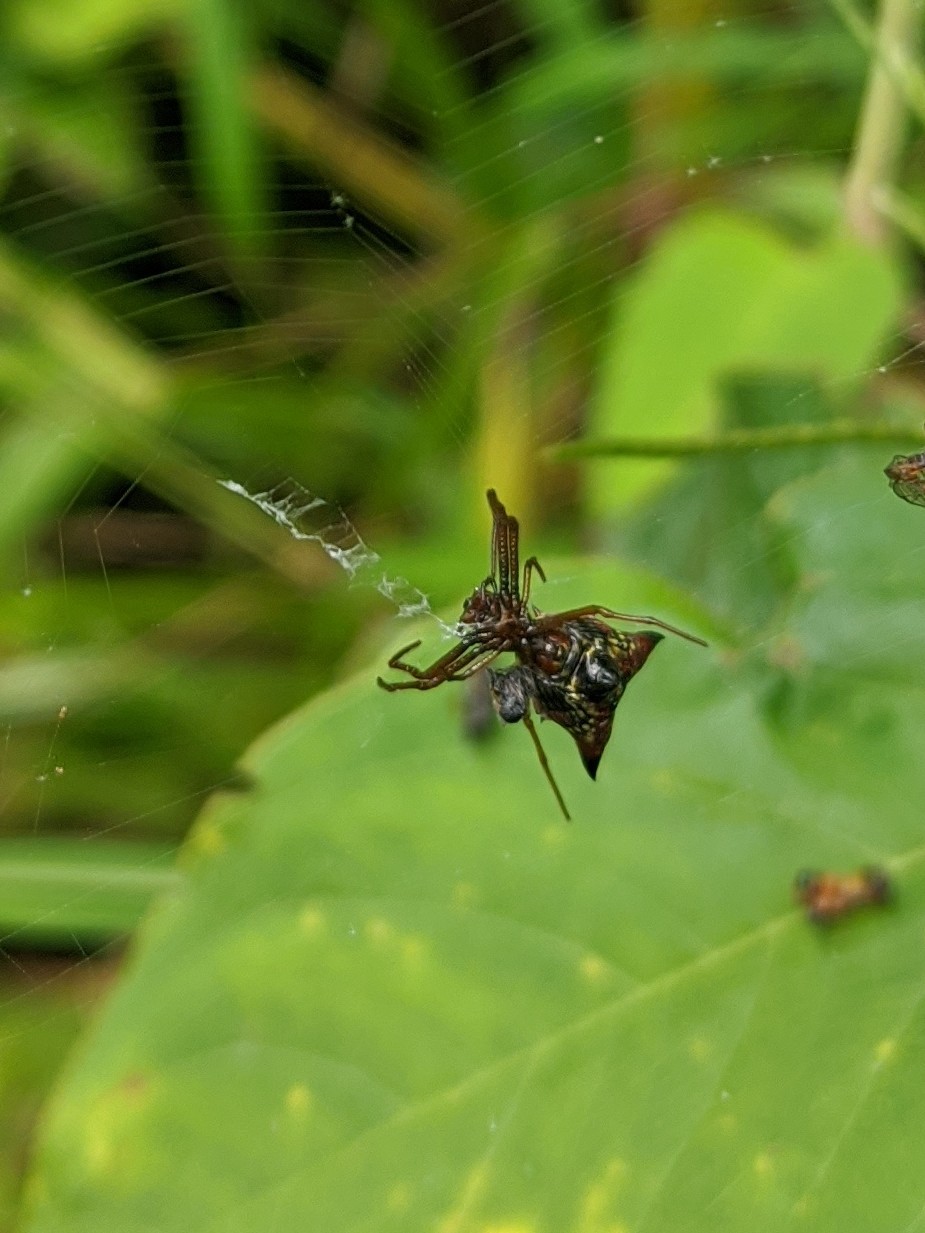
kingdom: Animalia
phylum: Arthropoda
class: Arachnida
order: Araneae
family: Araneidae
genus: Micrathena
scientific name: Micrathena sagittata
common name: Orb weavers
